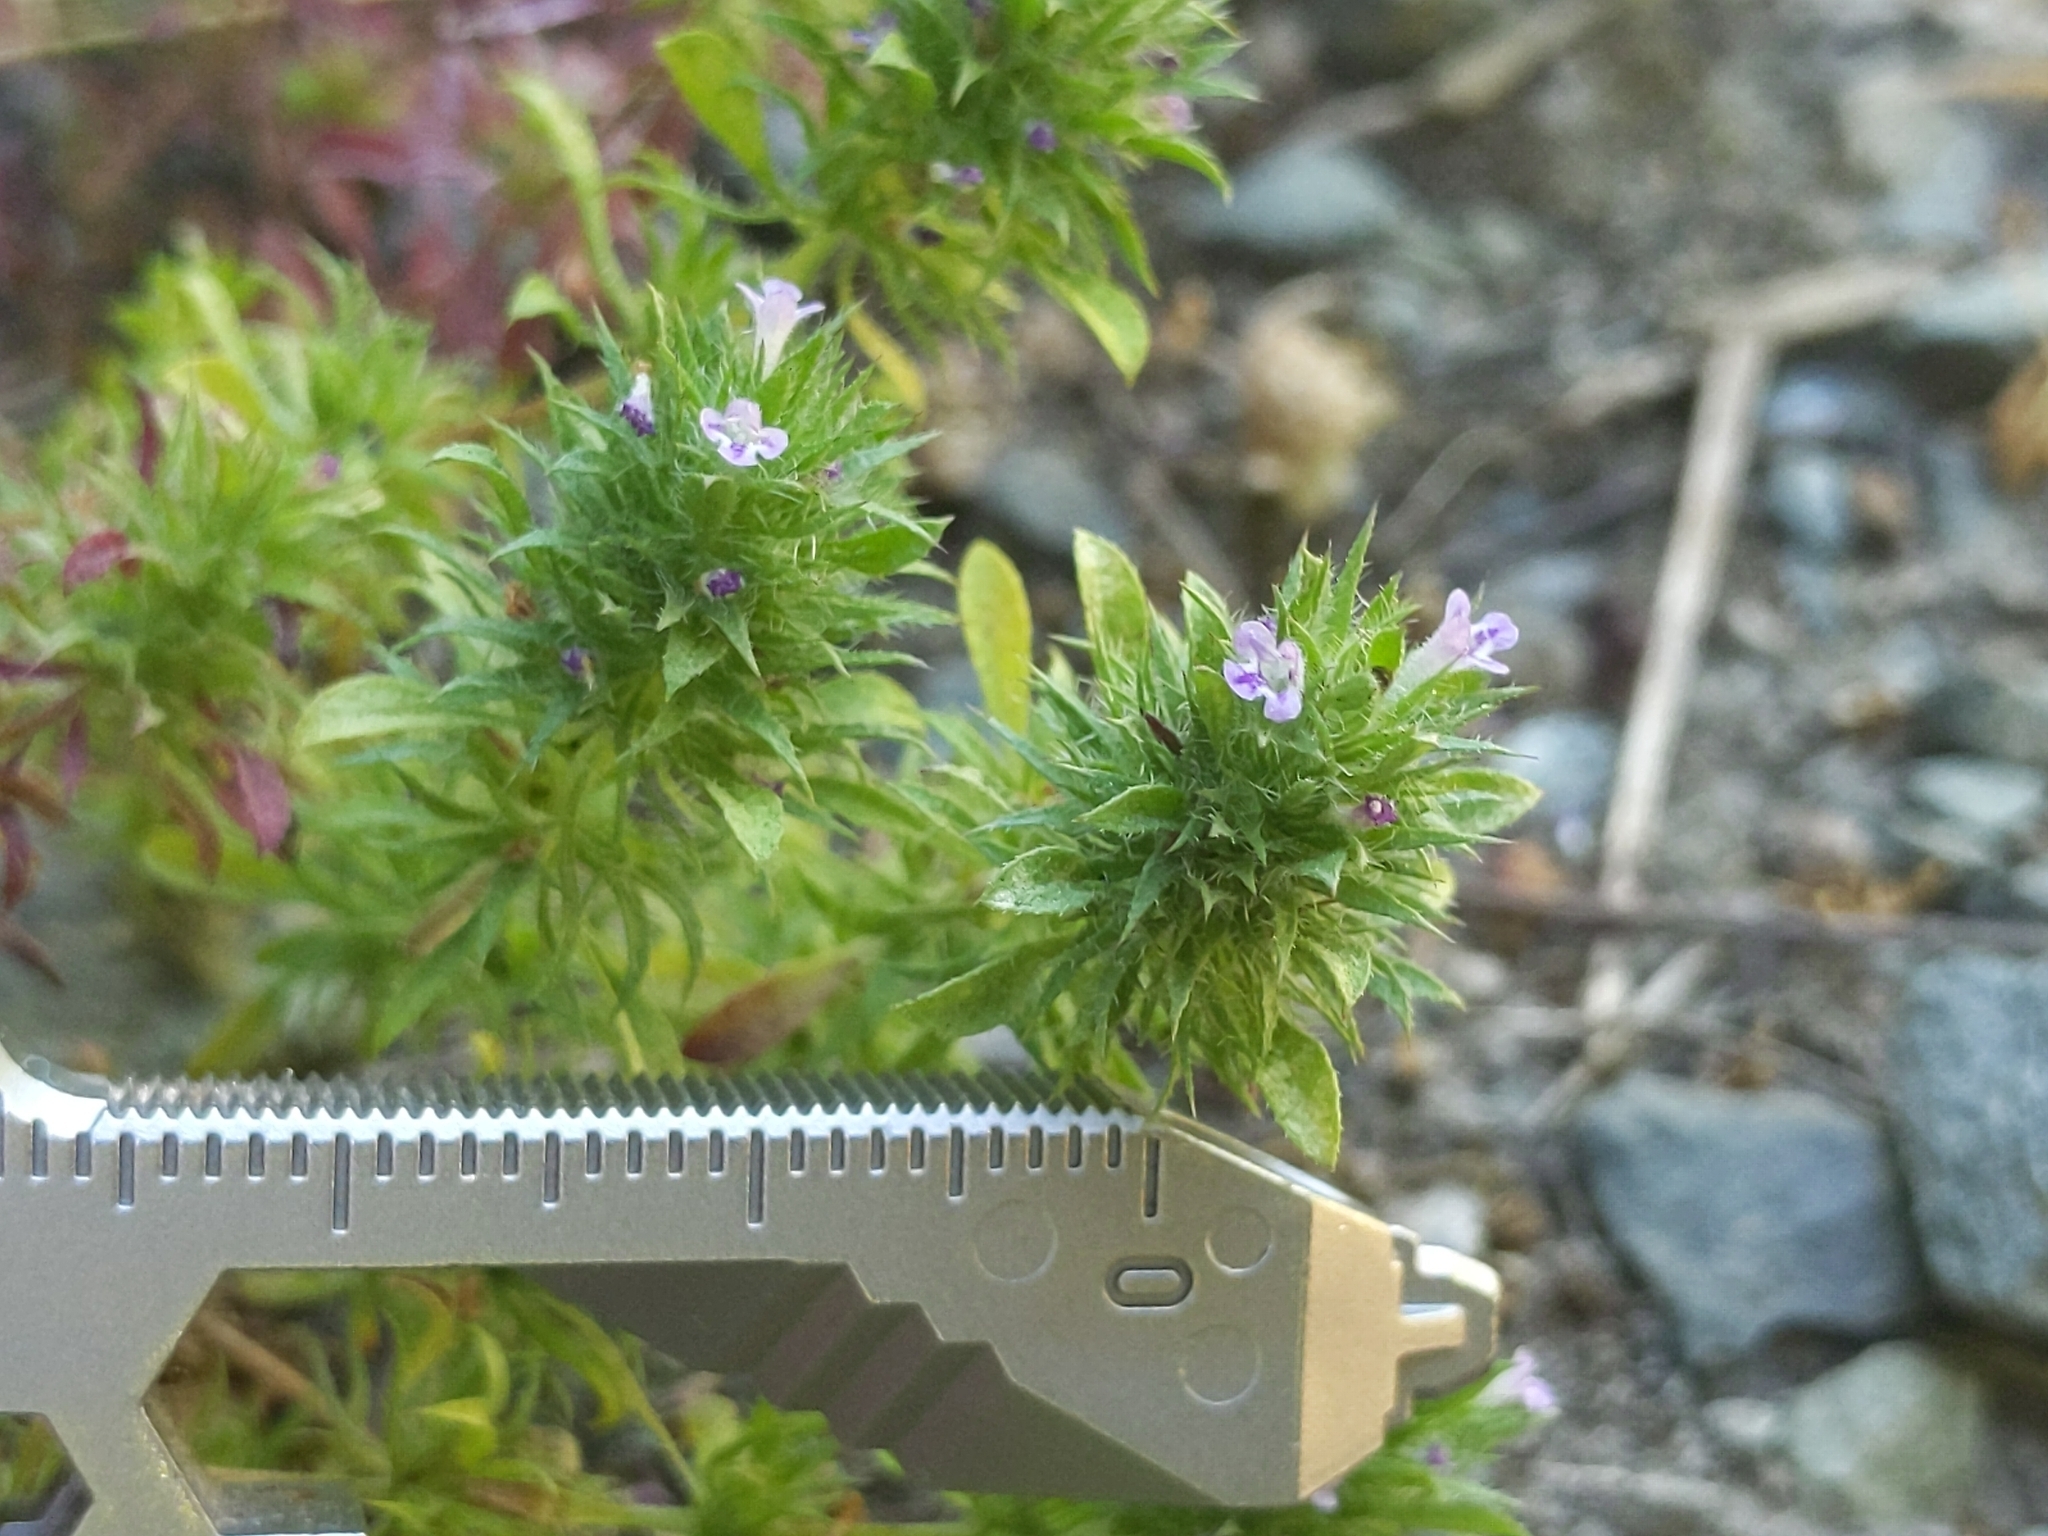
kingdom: Plantae
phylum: Tracheophyta
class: Magnoliopsida
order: Lamiales
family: Lamiaceae
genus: Pogogyne
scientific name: Pogogyne serpylloides
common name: Thymeleaf mesamint
